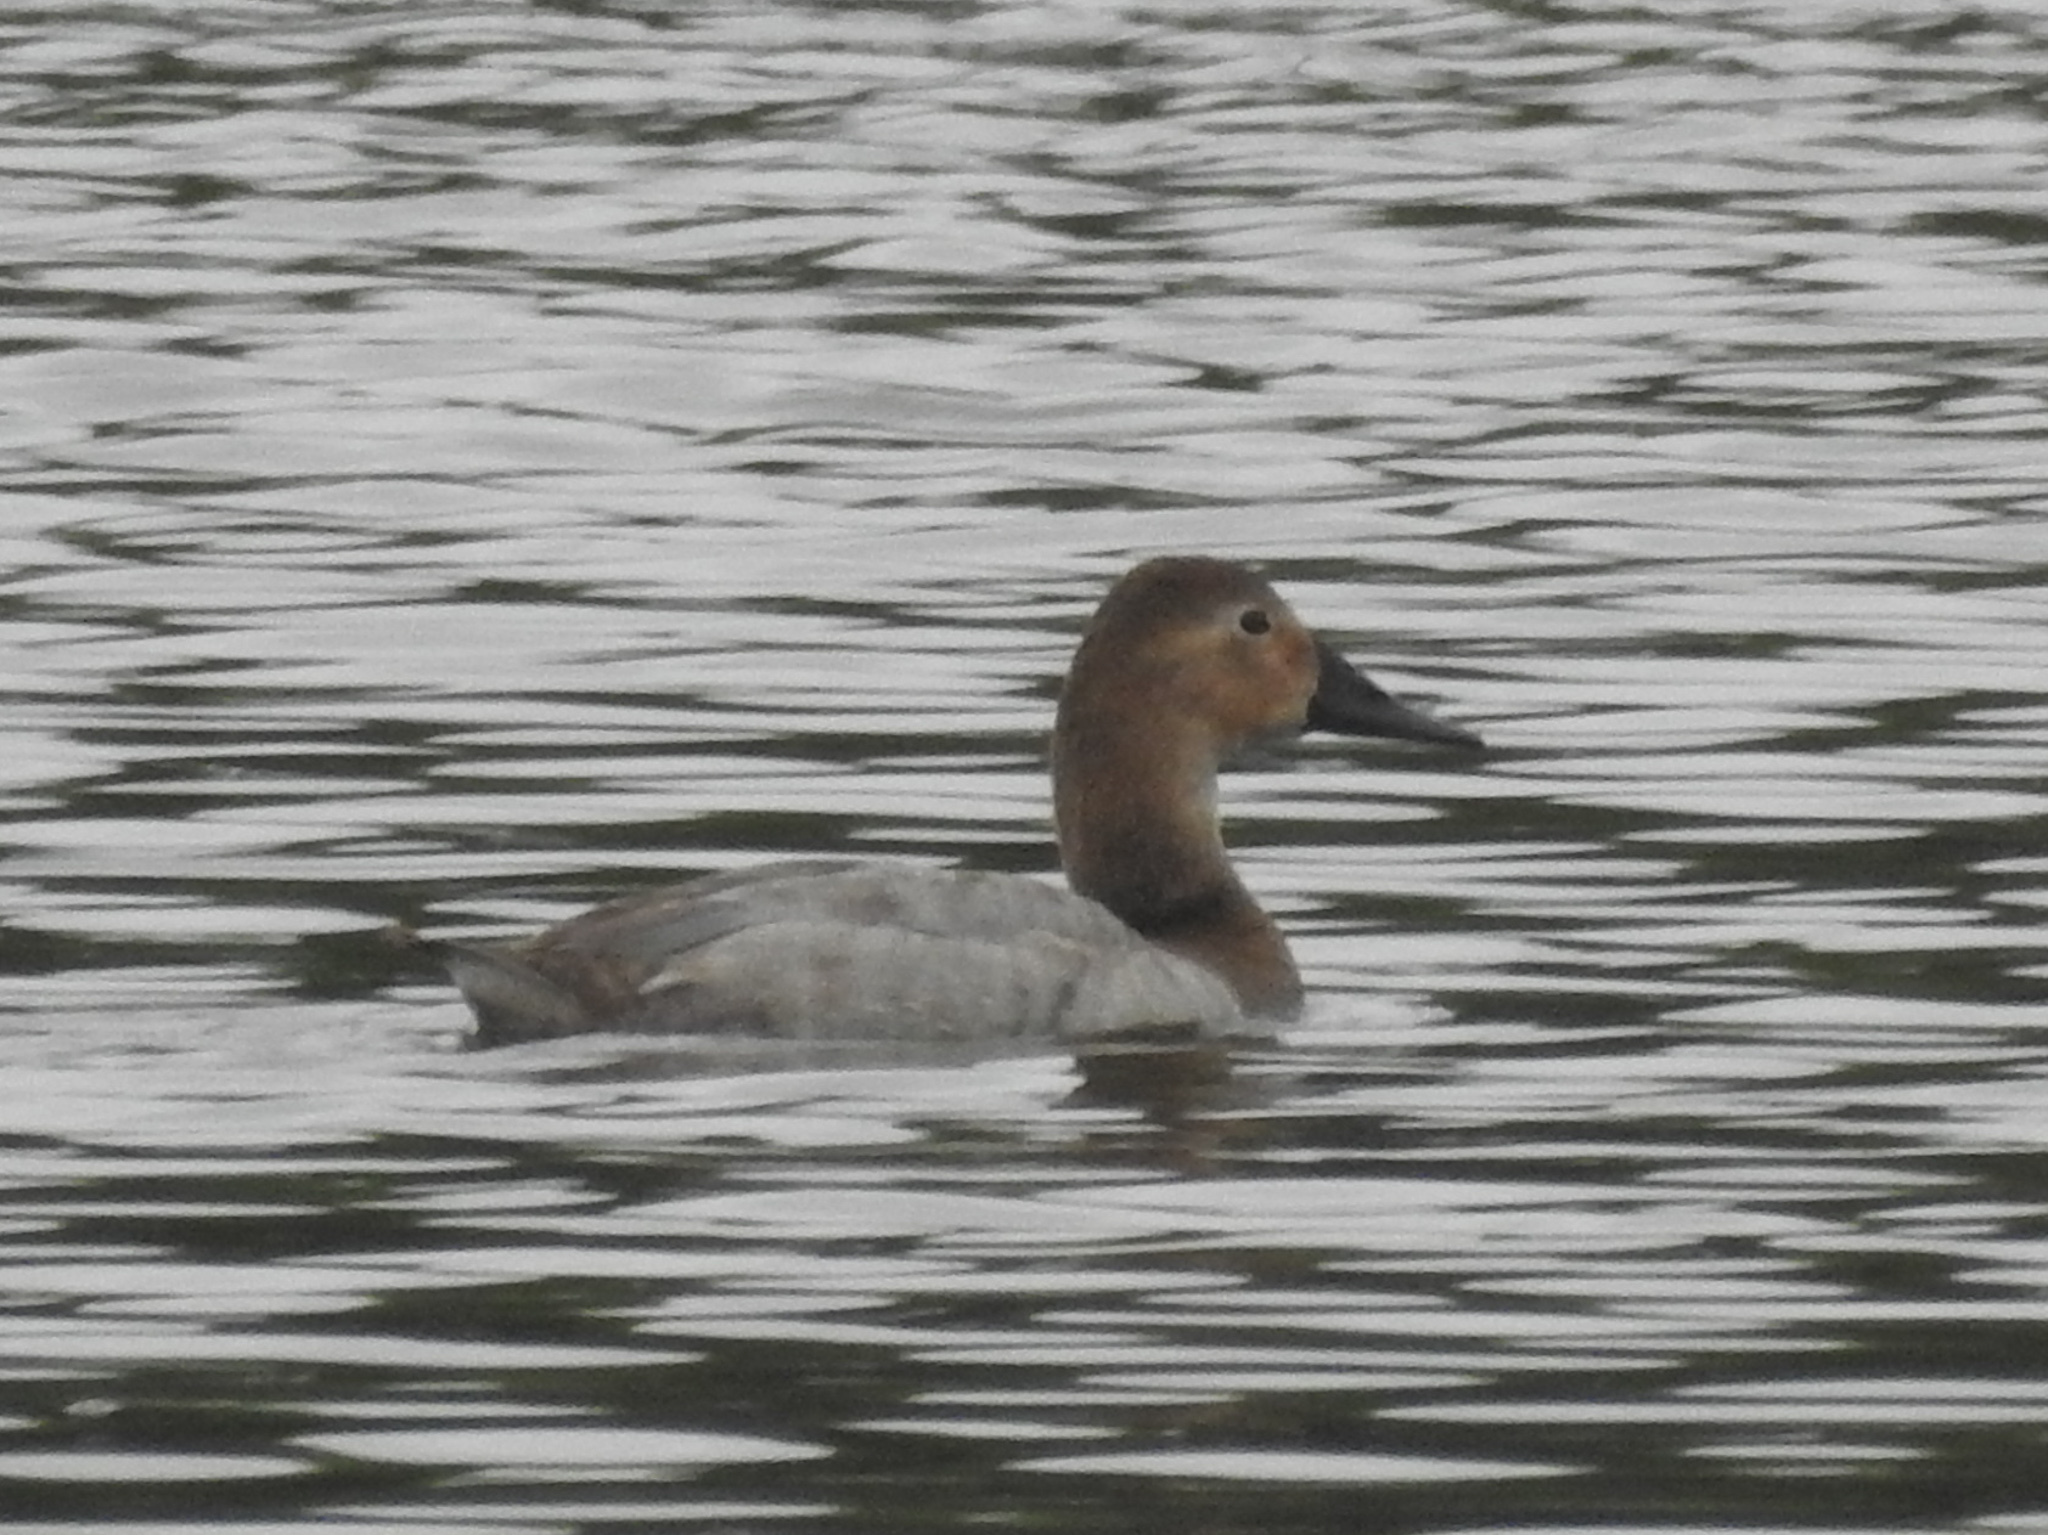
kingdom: Animalia
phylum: Chordata
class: Aves
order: Anseriformes
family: Anatidae
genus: Aythya
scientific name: Aythya valisineria
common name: Canvasback
